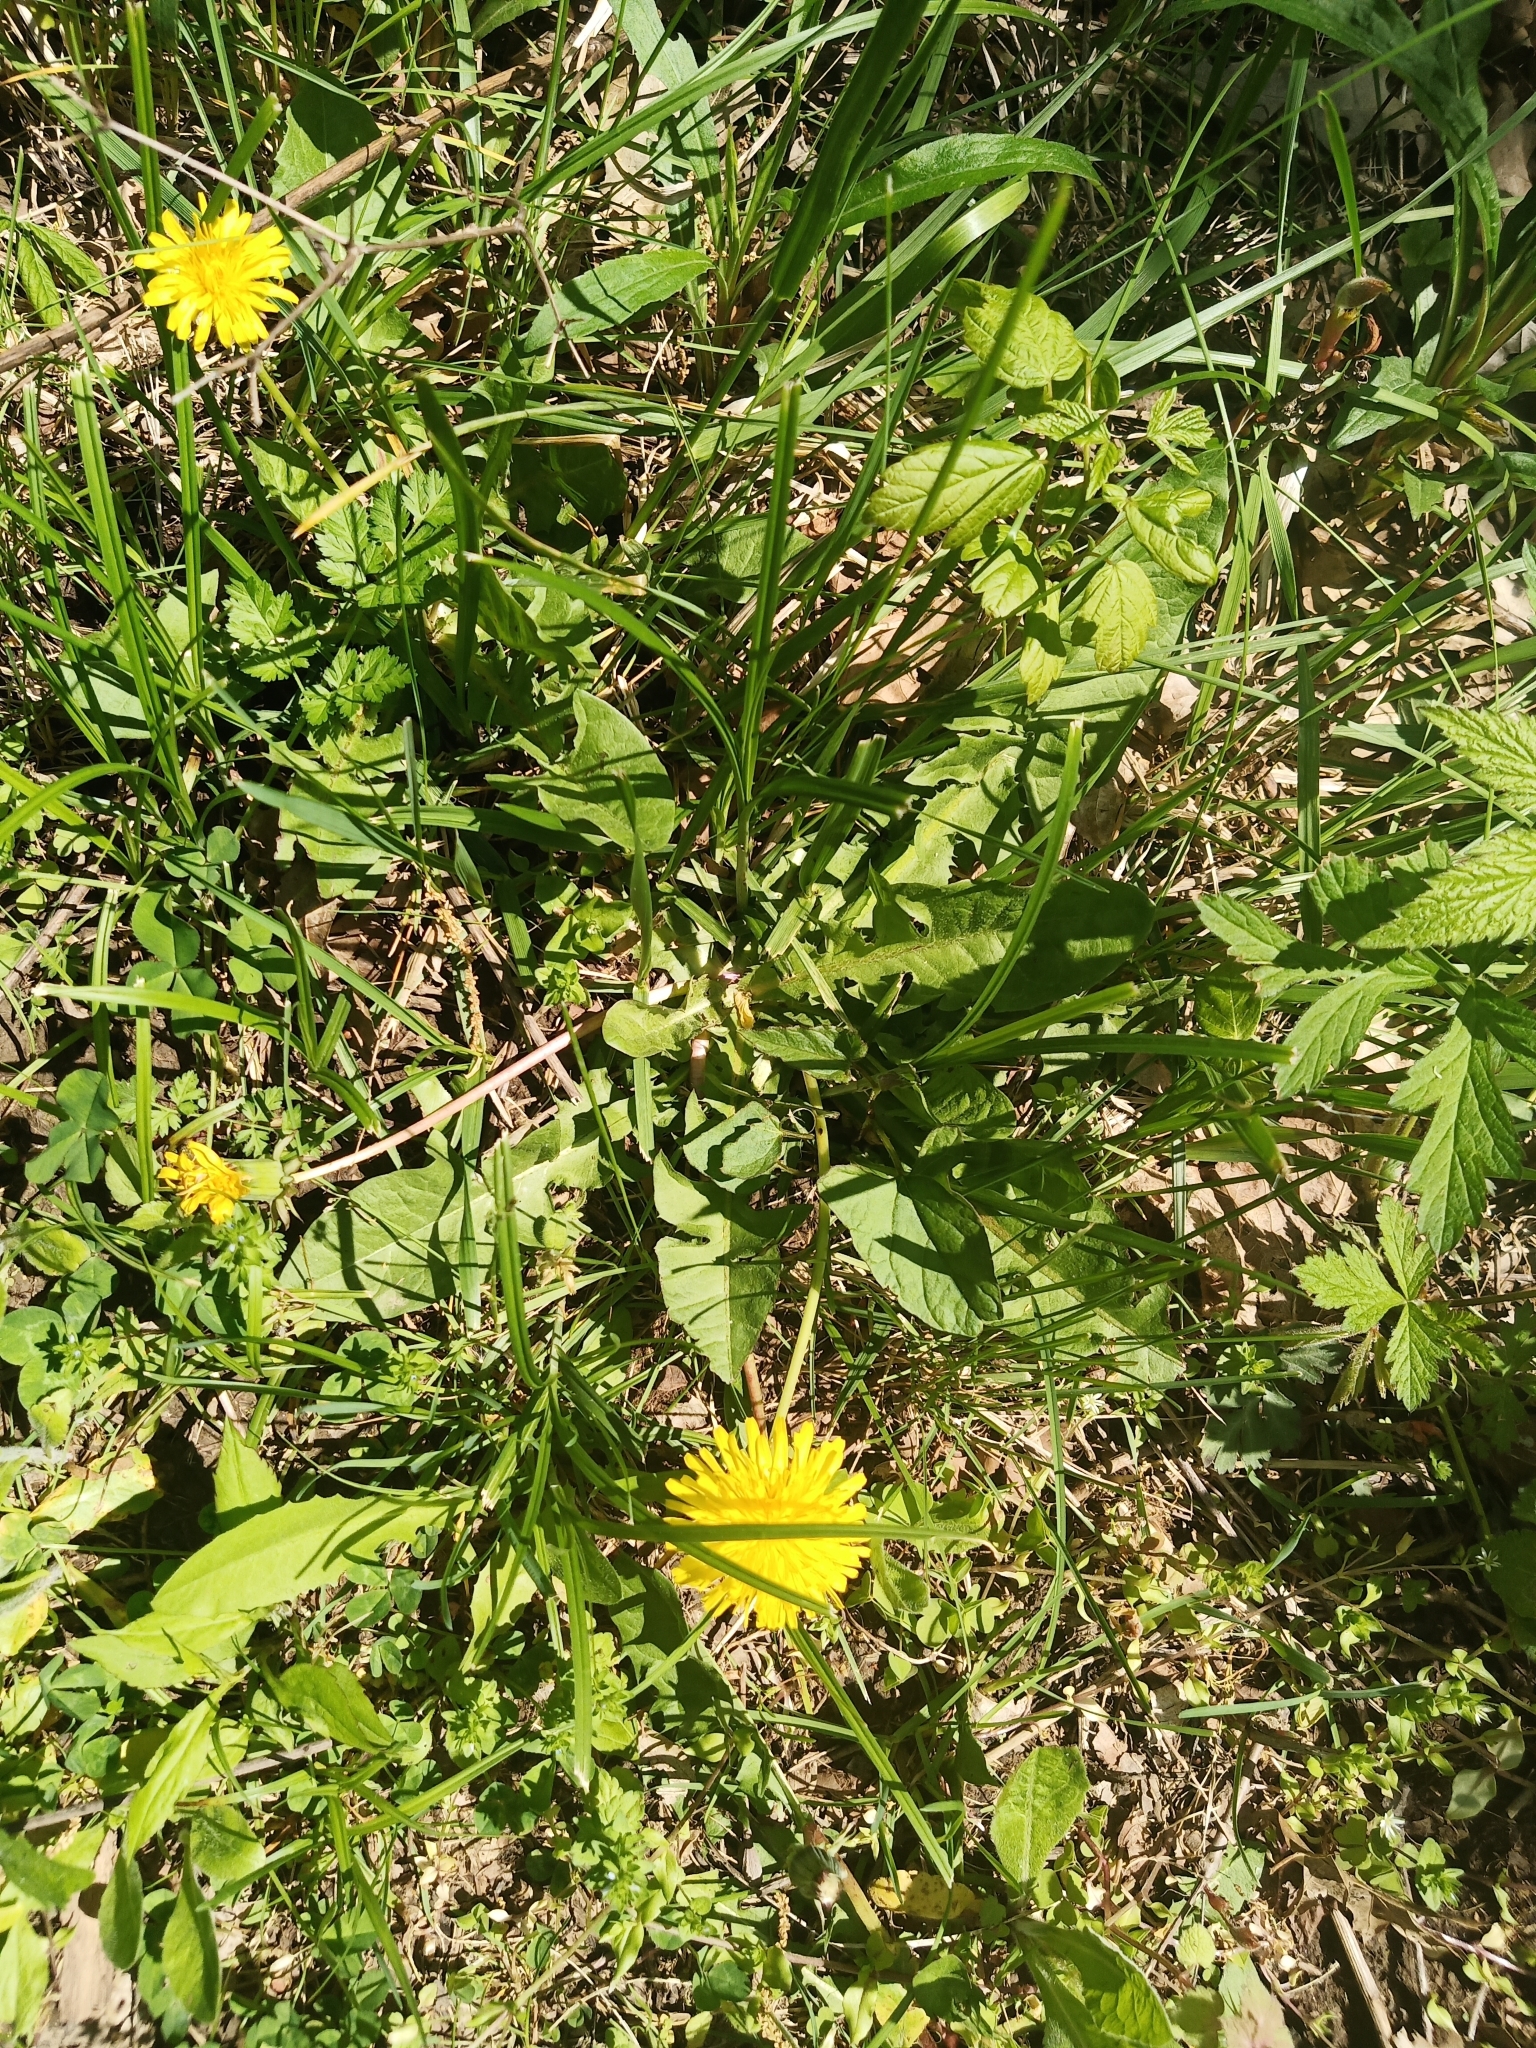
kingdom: Plantae
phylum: Tracheophyta
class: Magnoliopsida
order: Asterales
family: Asteraceae
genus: Taraxacum
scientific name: Taraxacum officinale
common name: Common dandelion
